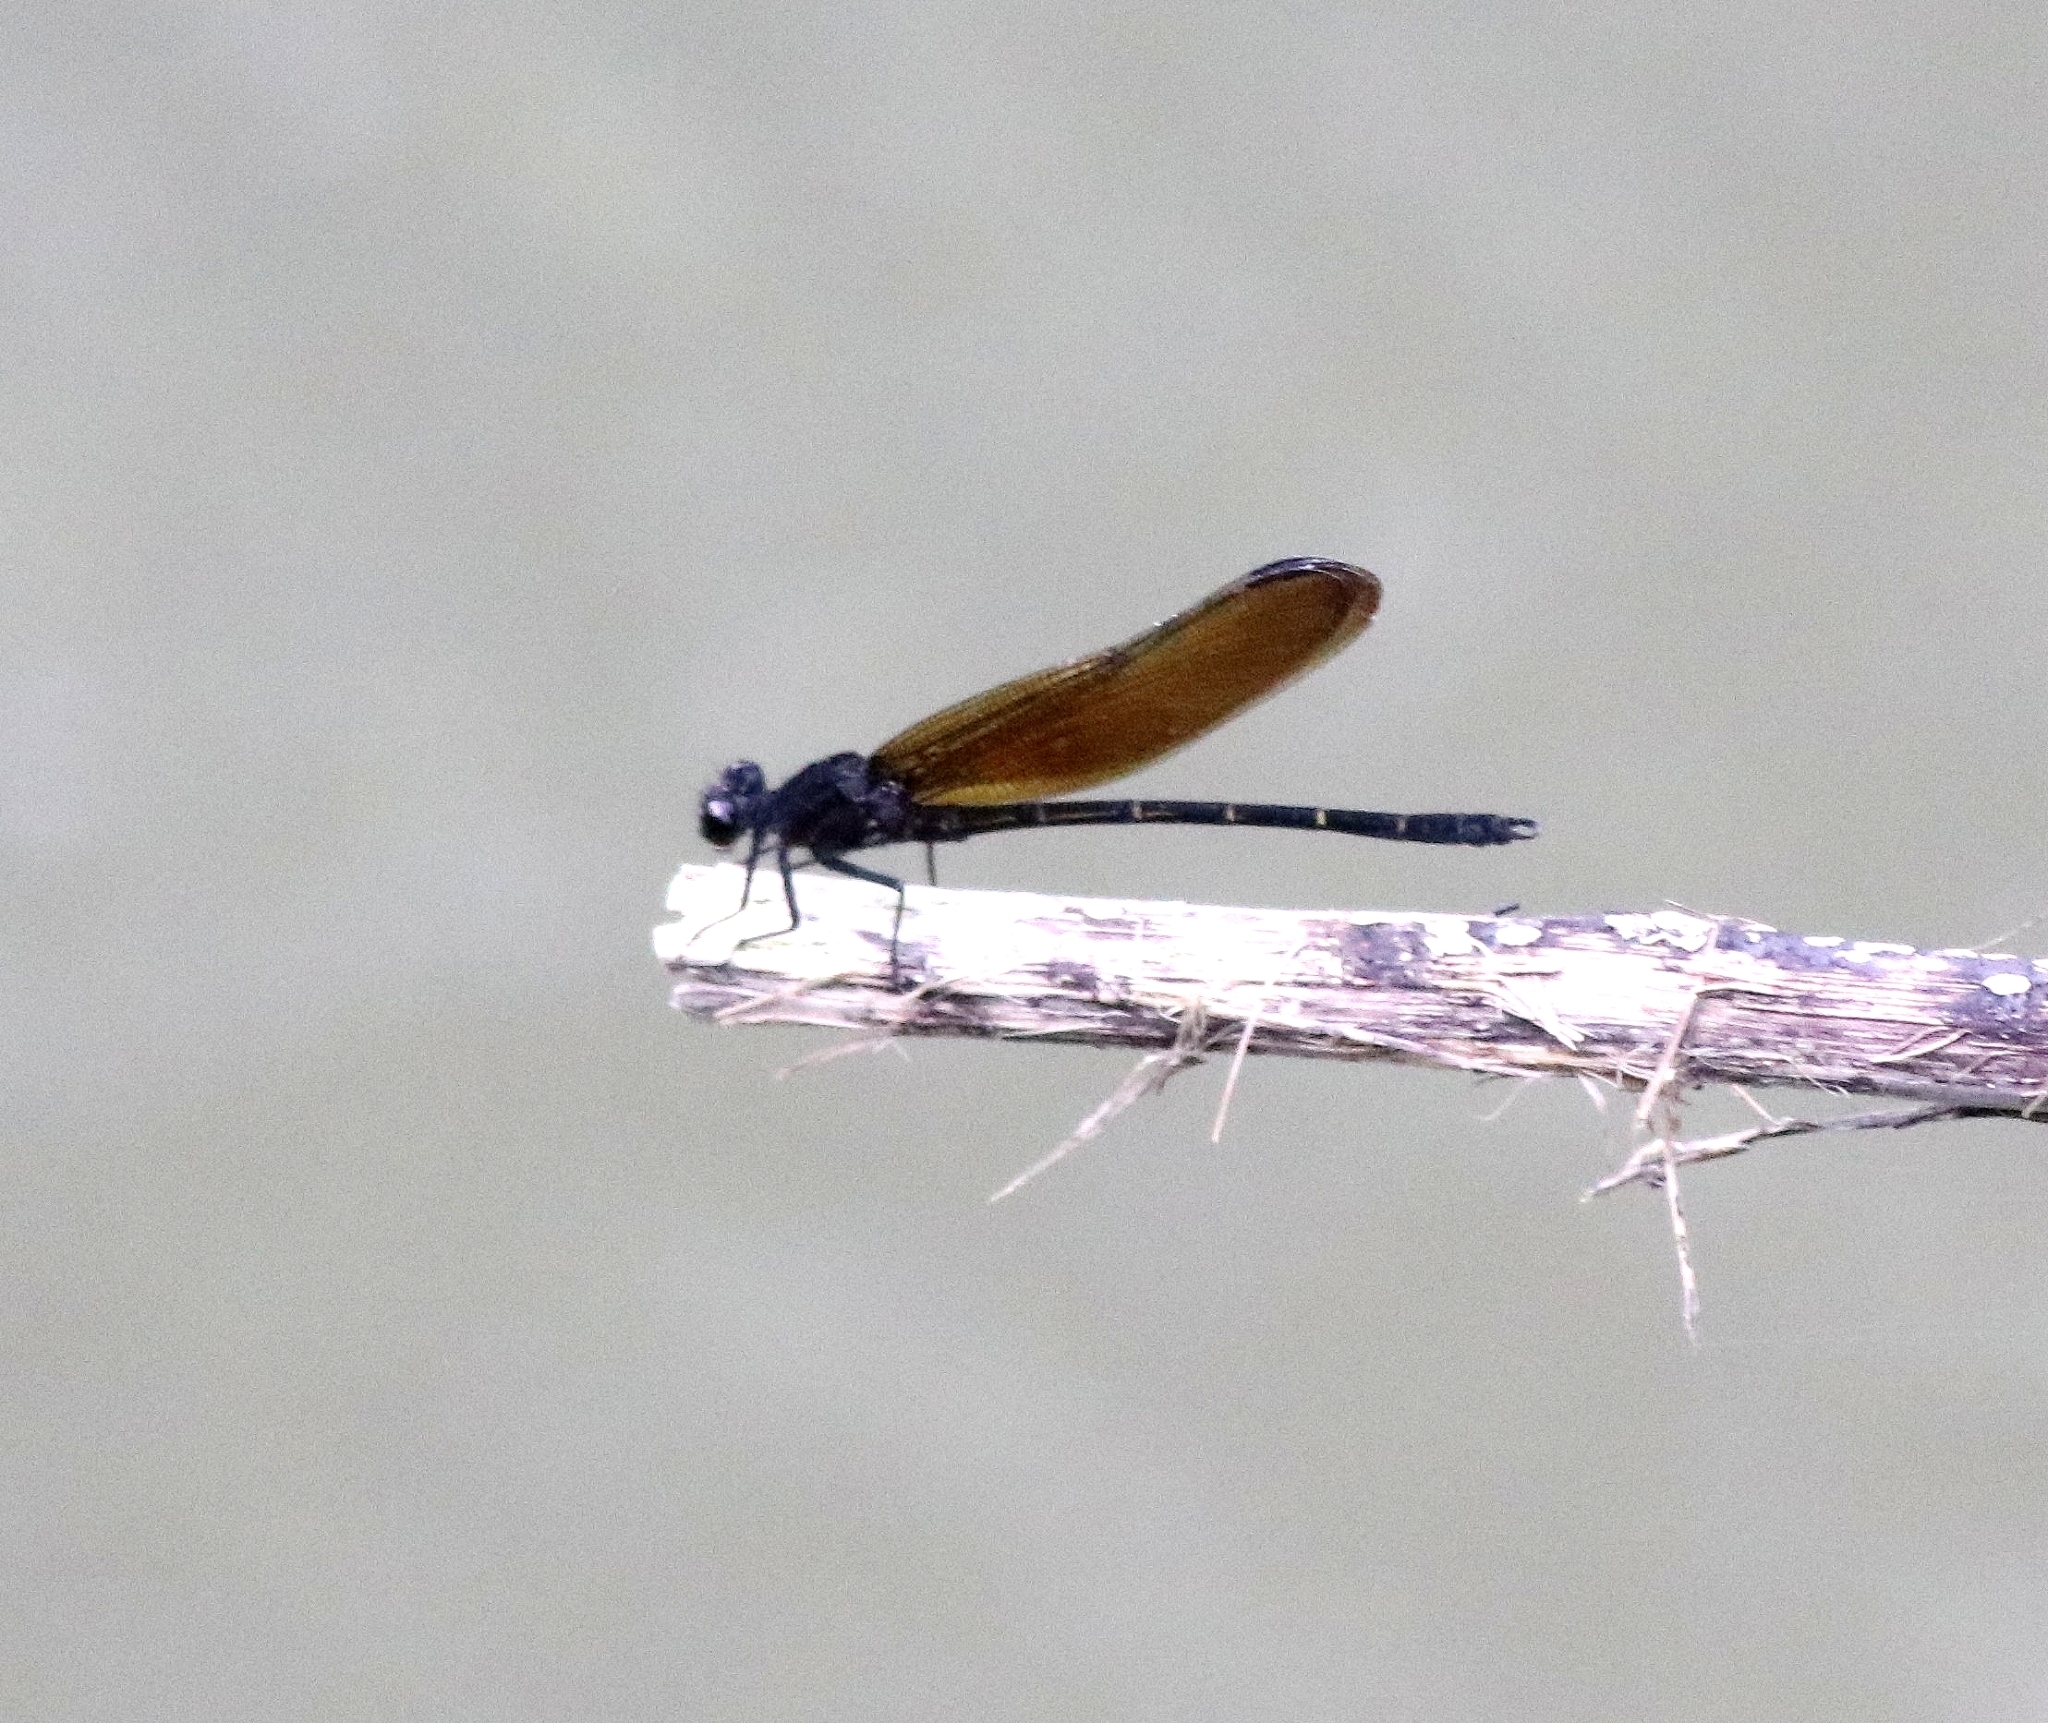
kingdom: Animalia
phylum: Arthropoda
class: Insecta
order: Odonata
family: Euphaeidae
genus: Dysphaea
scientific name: Dysphaea ethela
